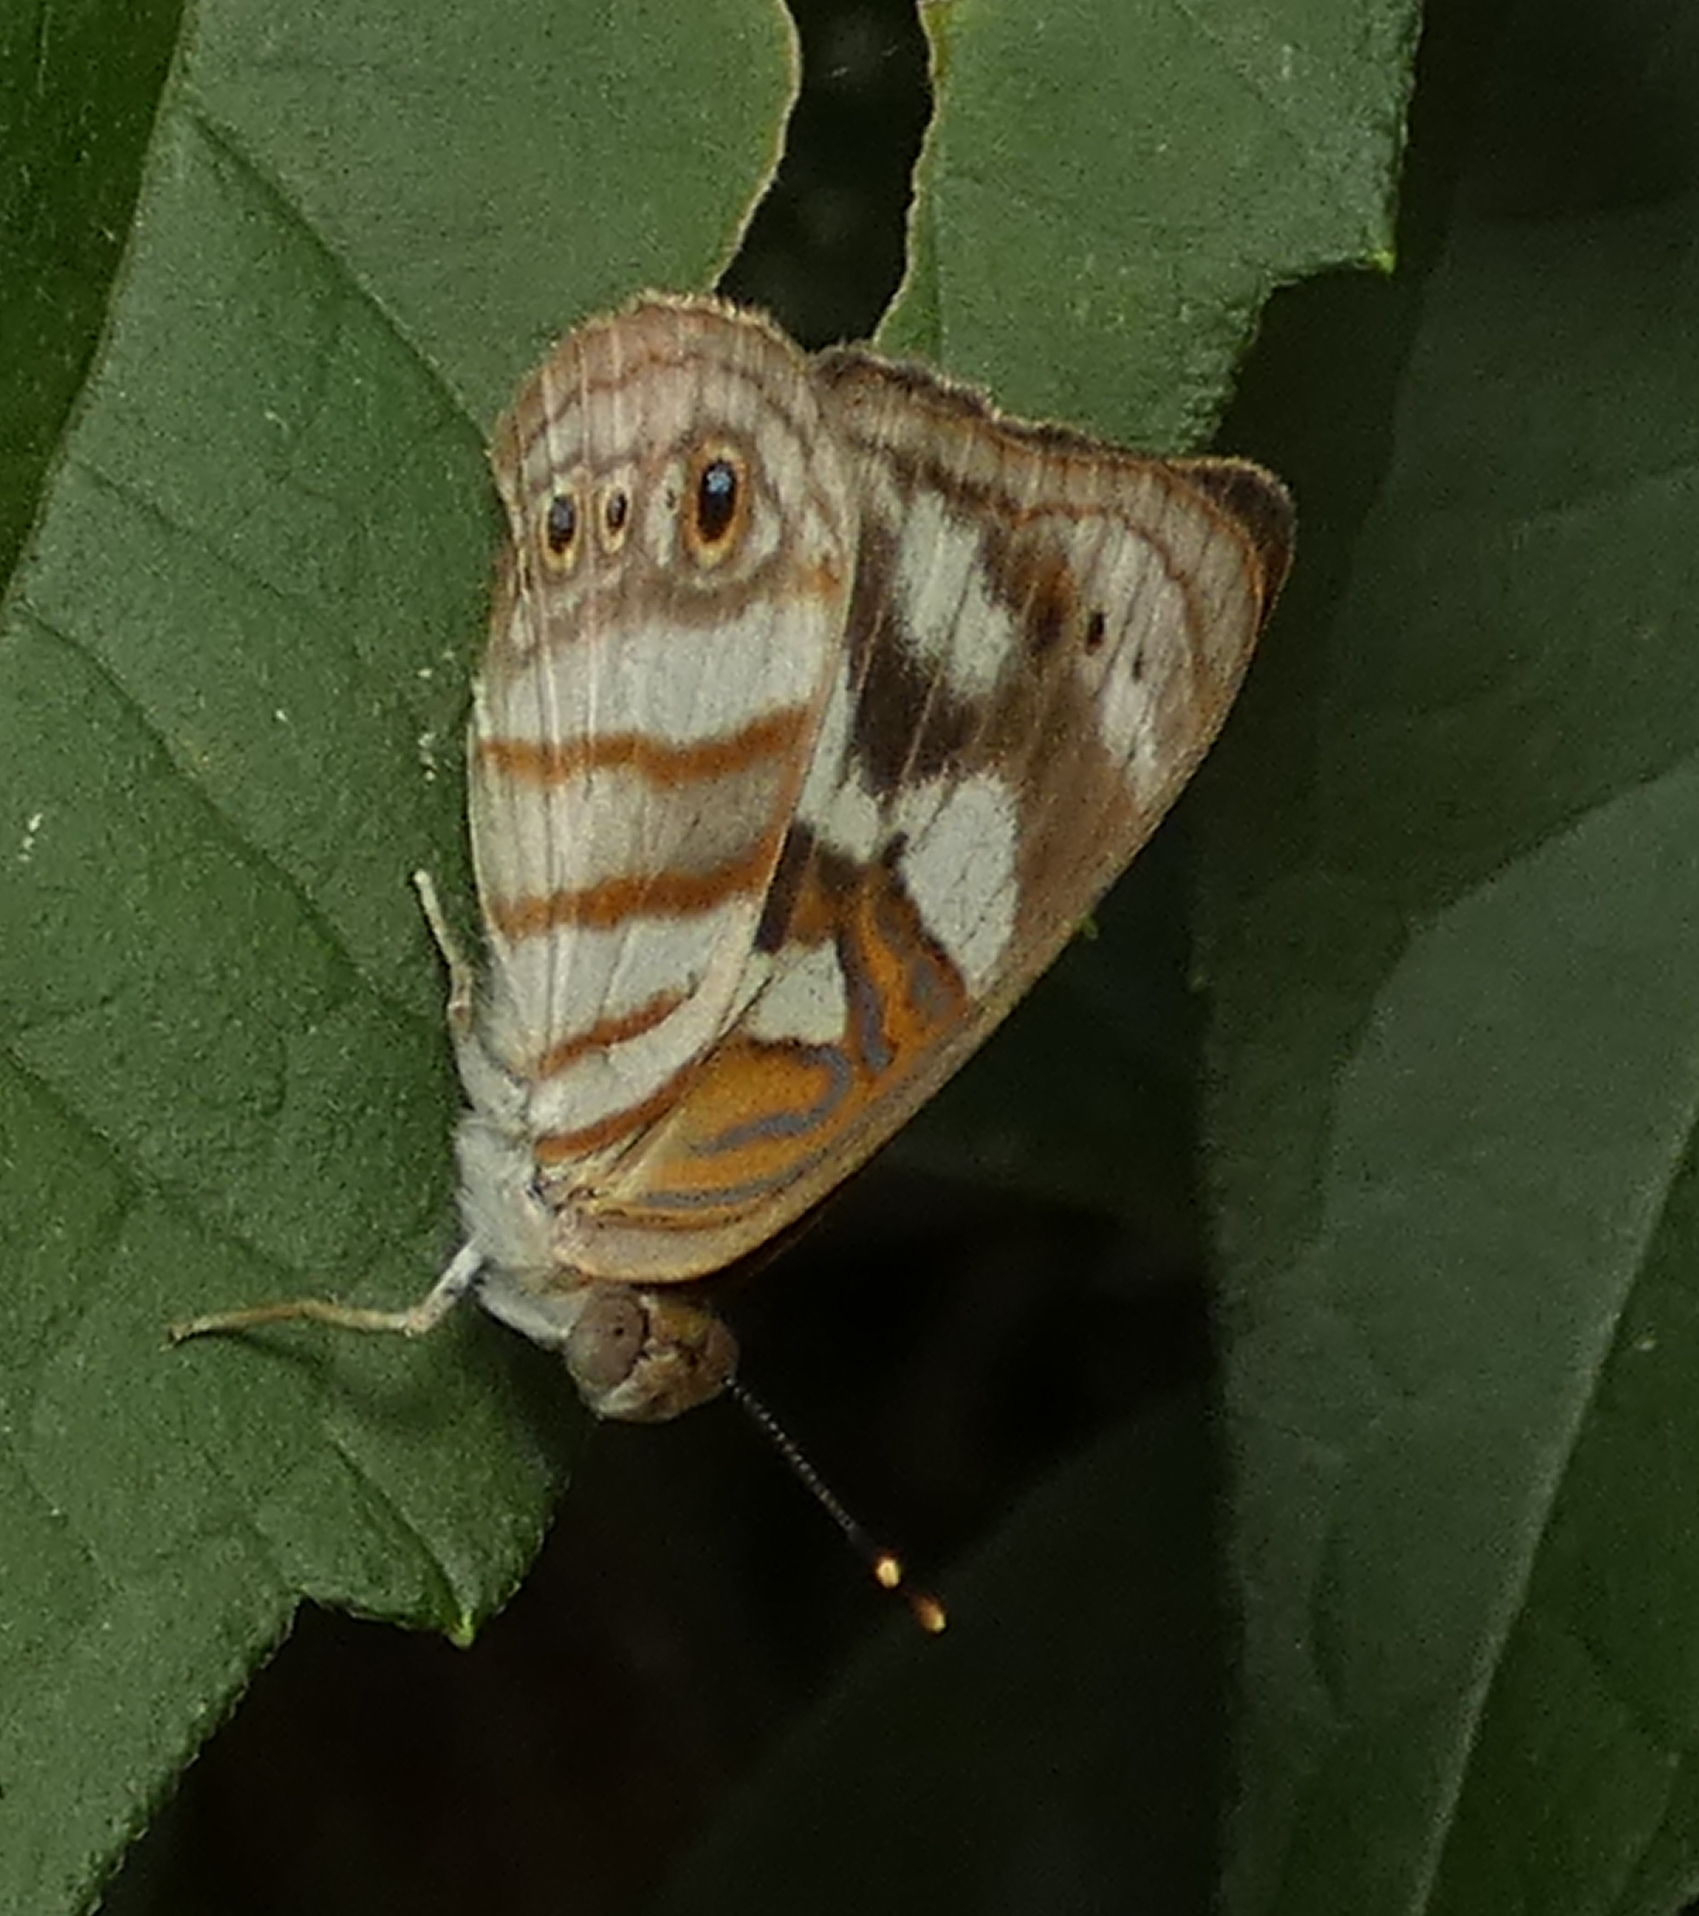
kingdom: Animalia
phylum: Arthropoda
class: Insecta
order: Lepidoptera
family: Nymphalidae
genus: Dynamine
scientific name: Dynamine arene
